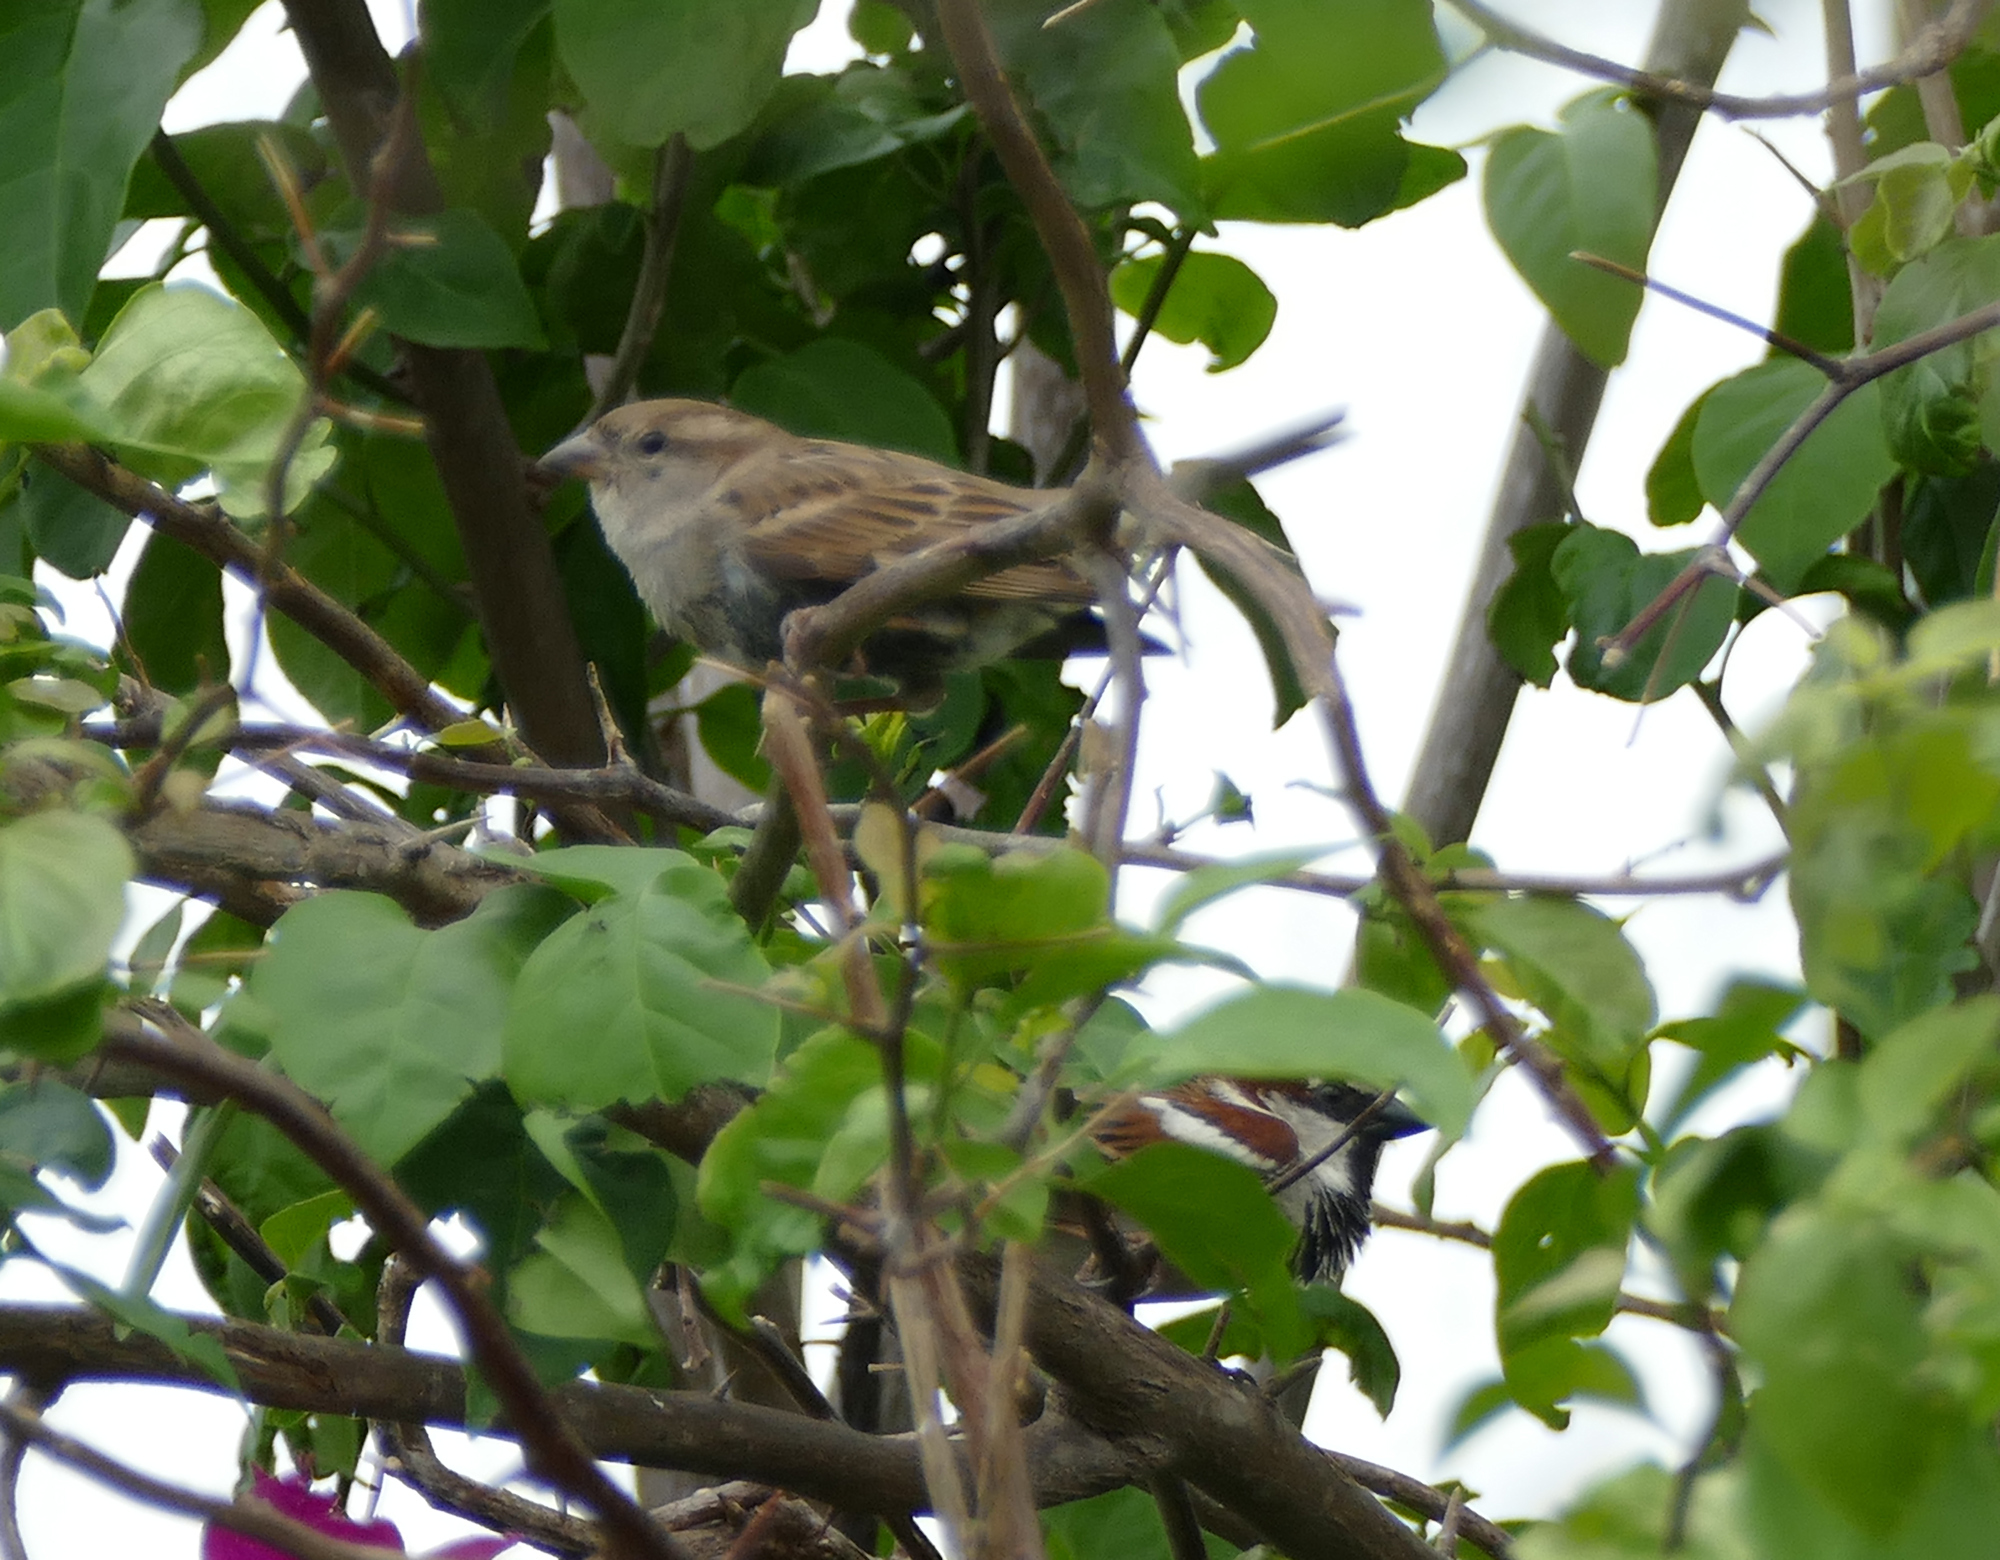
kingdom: Animalia
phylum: Chordata
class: Aves
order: Passeriformes
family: Passeridae
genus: Passer
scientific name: Passer domesticus
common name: House sparrow
